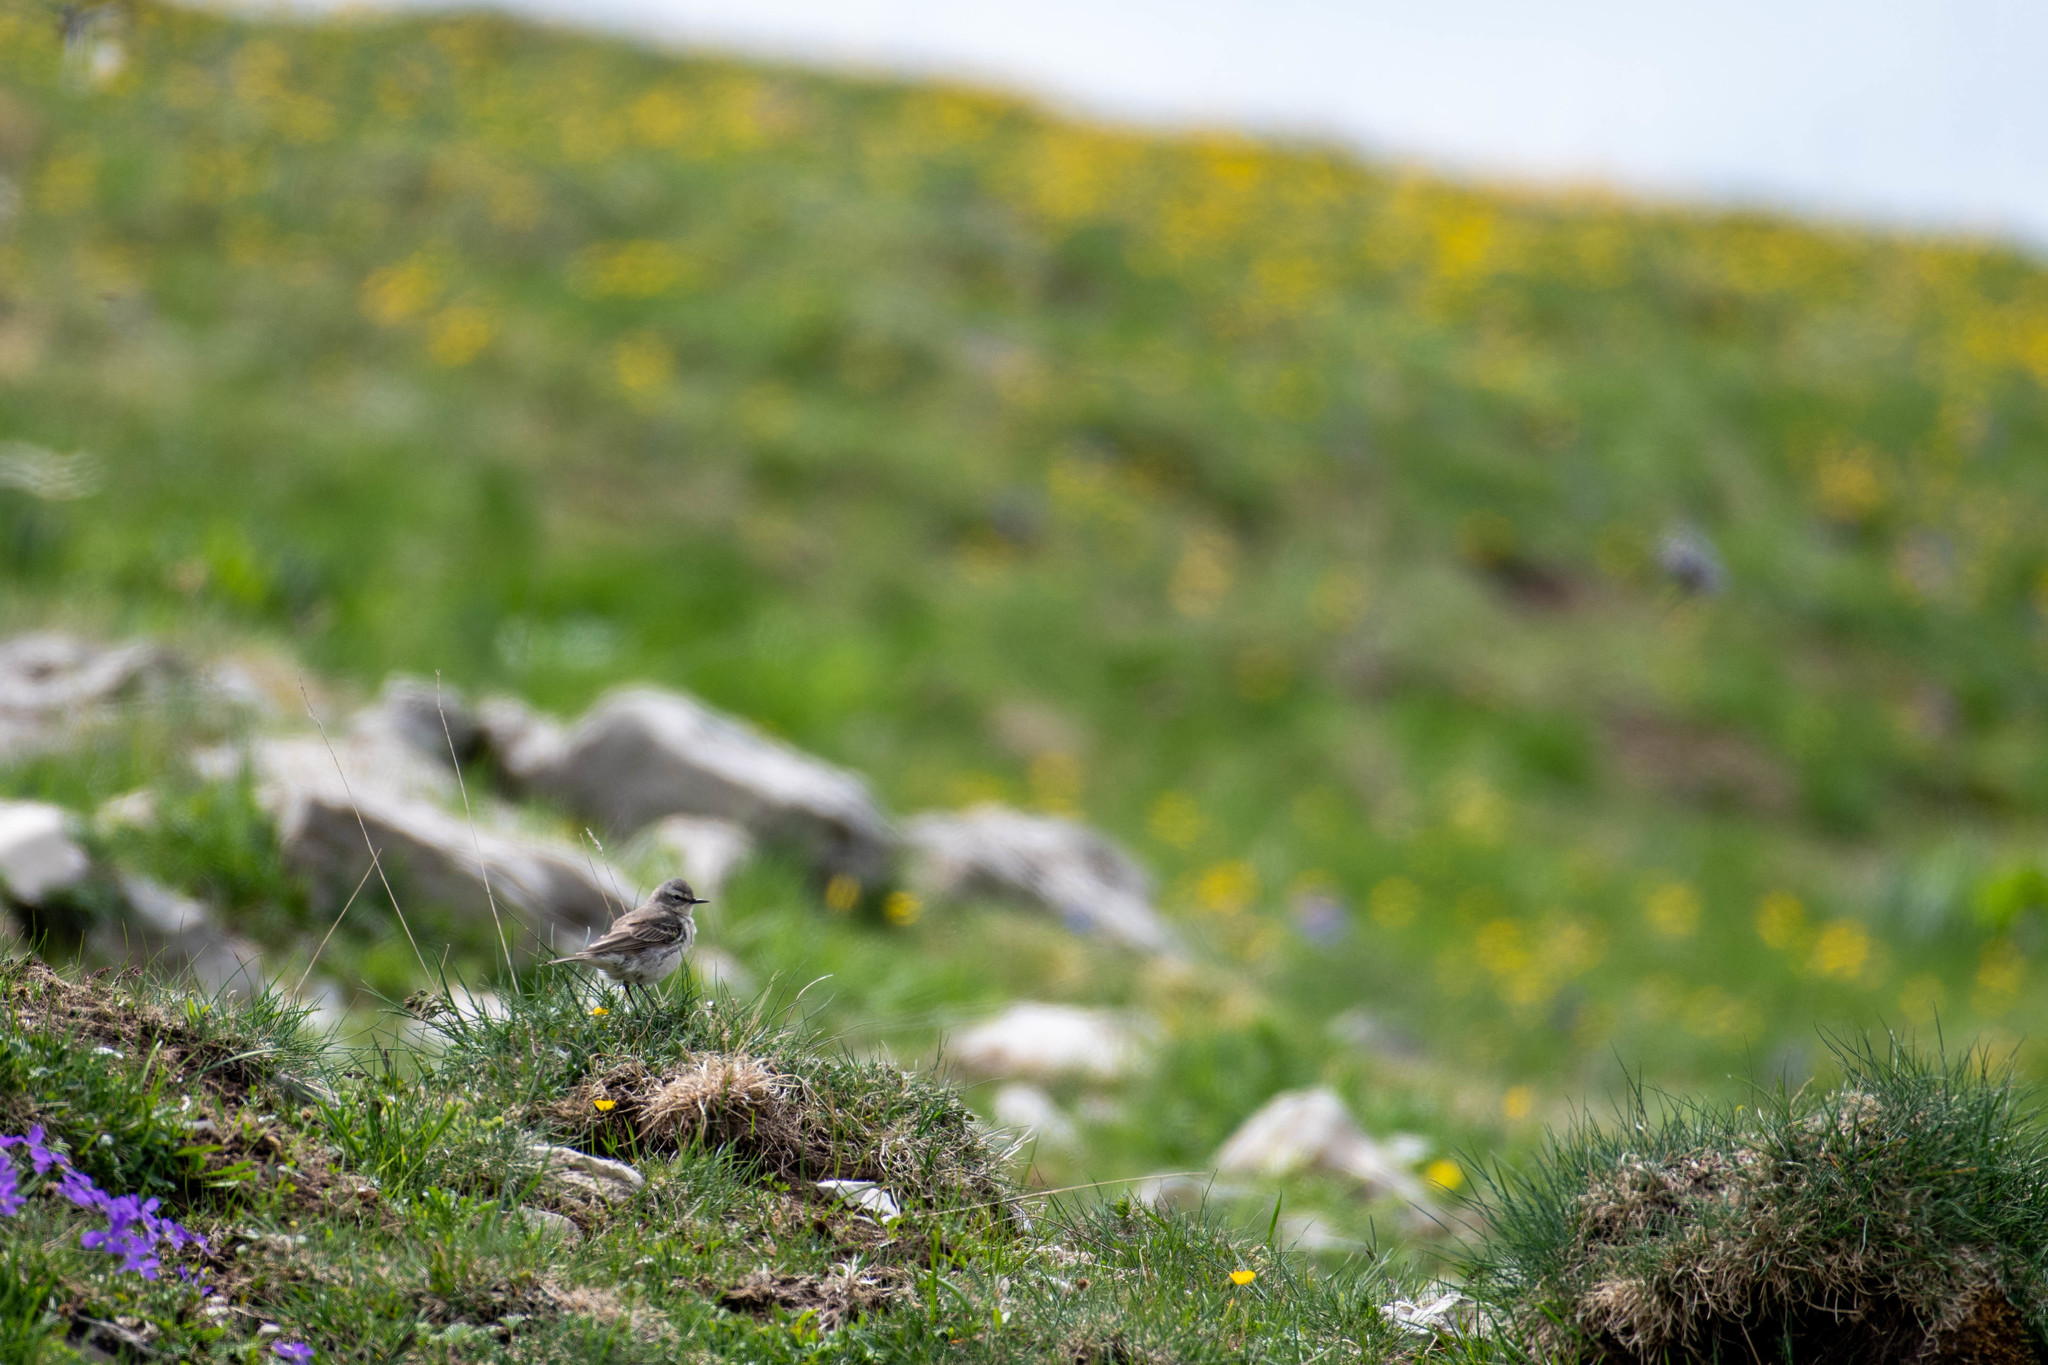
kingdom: Animalia
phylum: Chordata
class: Aves
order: Passeriformes
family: Motacillidae
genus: Anthus
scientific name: Anthus spinoletta
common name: Water pipit
